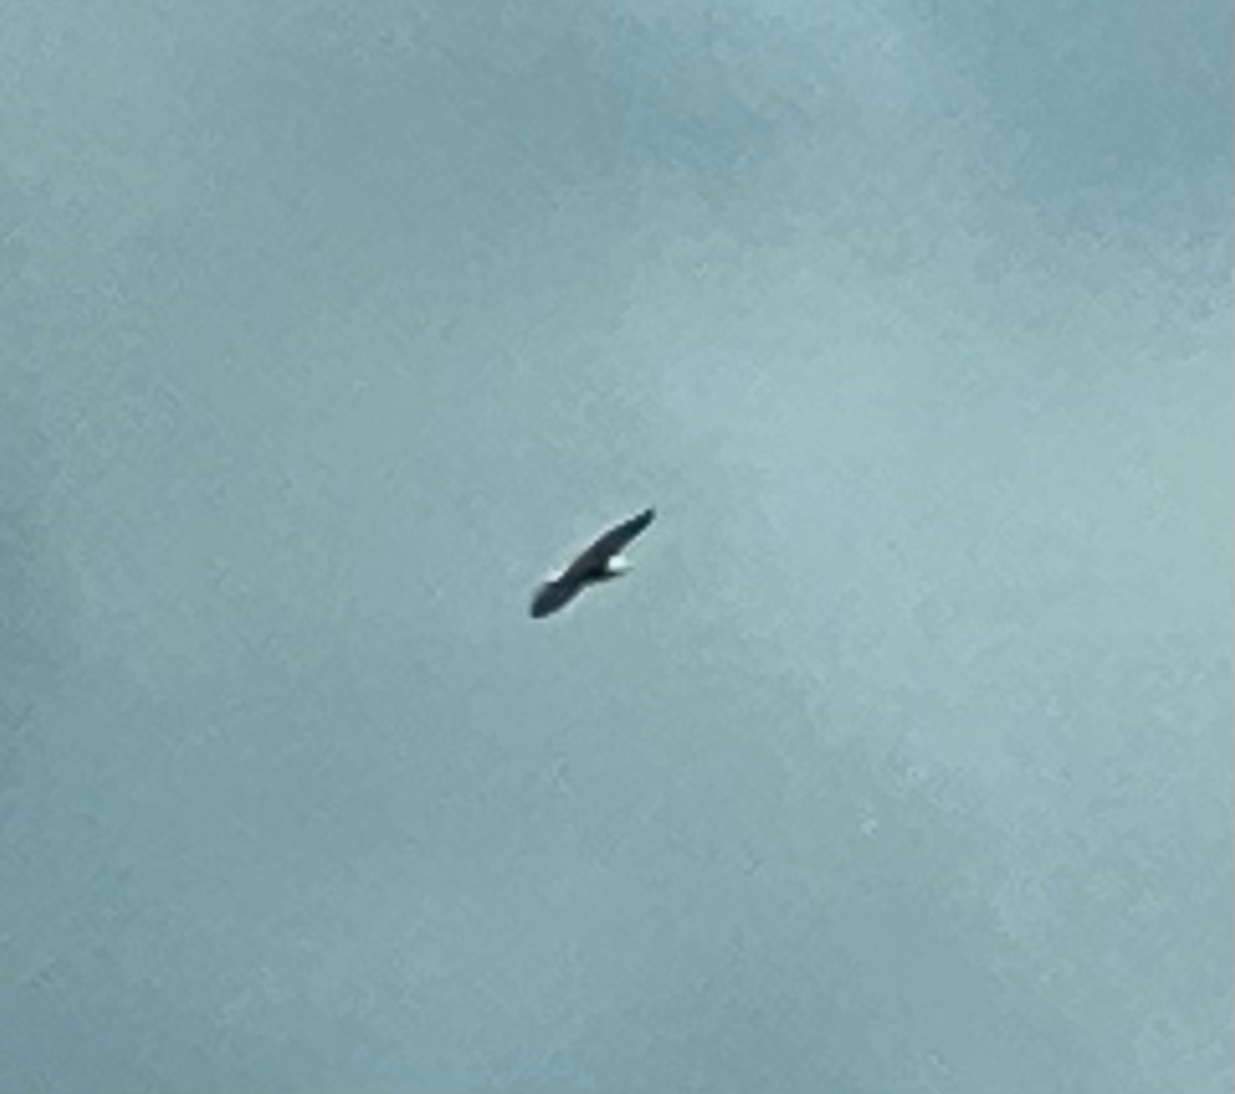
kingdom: Animalia
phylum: Chordata
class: Aves
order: Accipitriformes
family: Accipitridae
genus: Haliaeetus
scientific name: Haliaeetus leucocephalus
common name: Bald eagle
